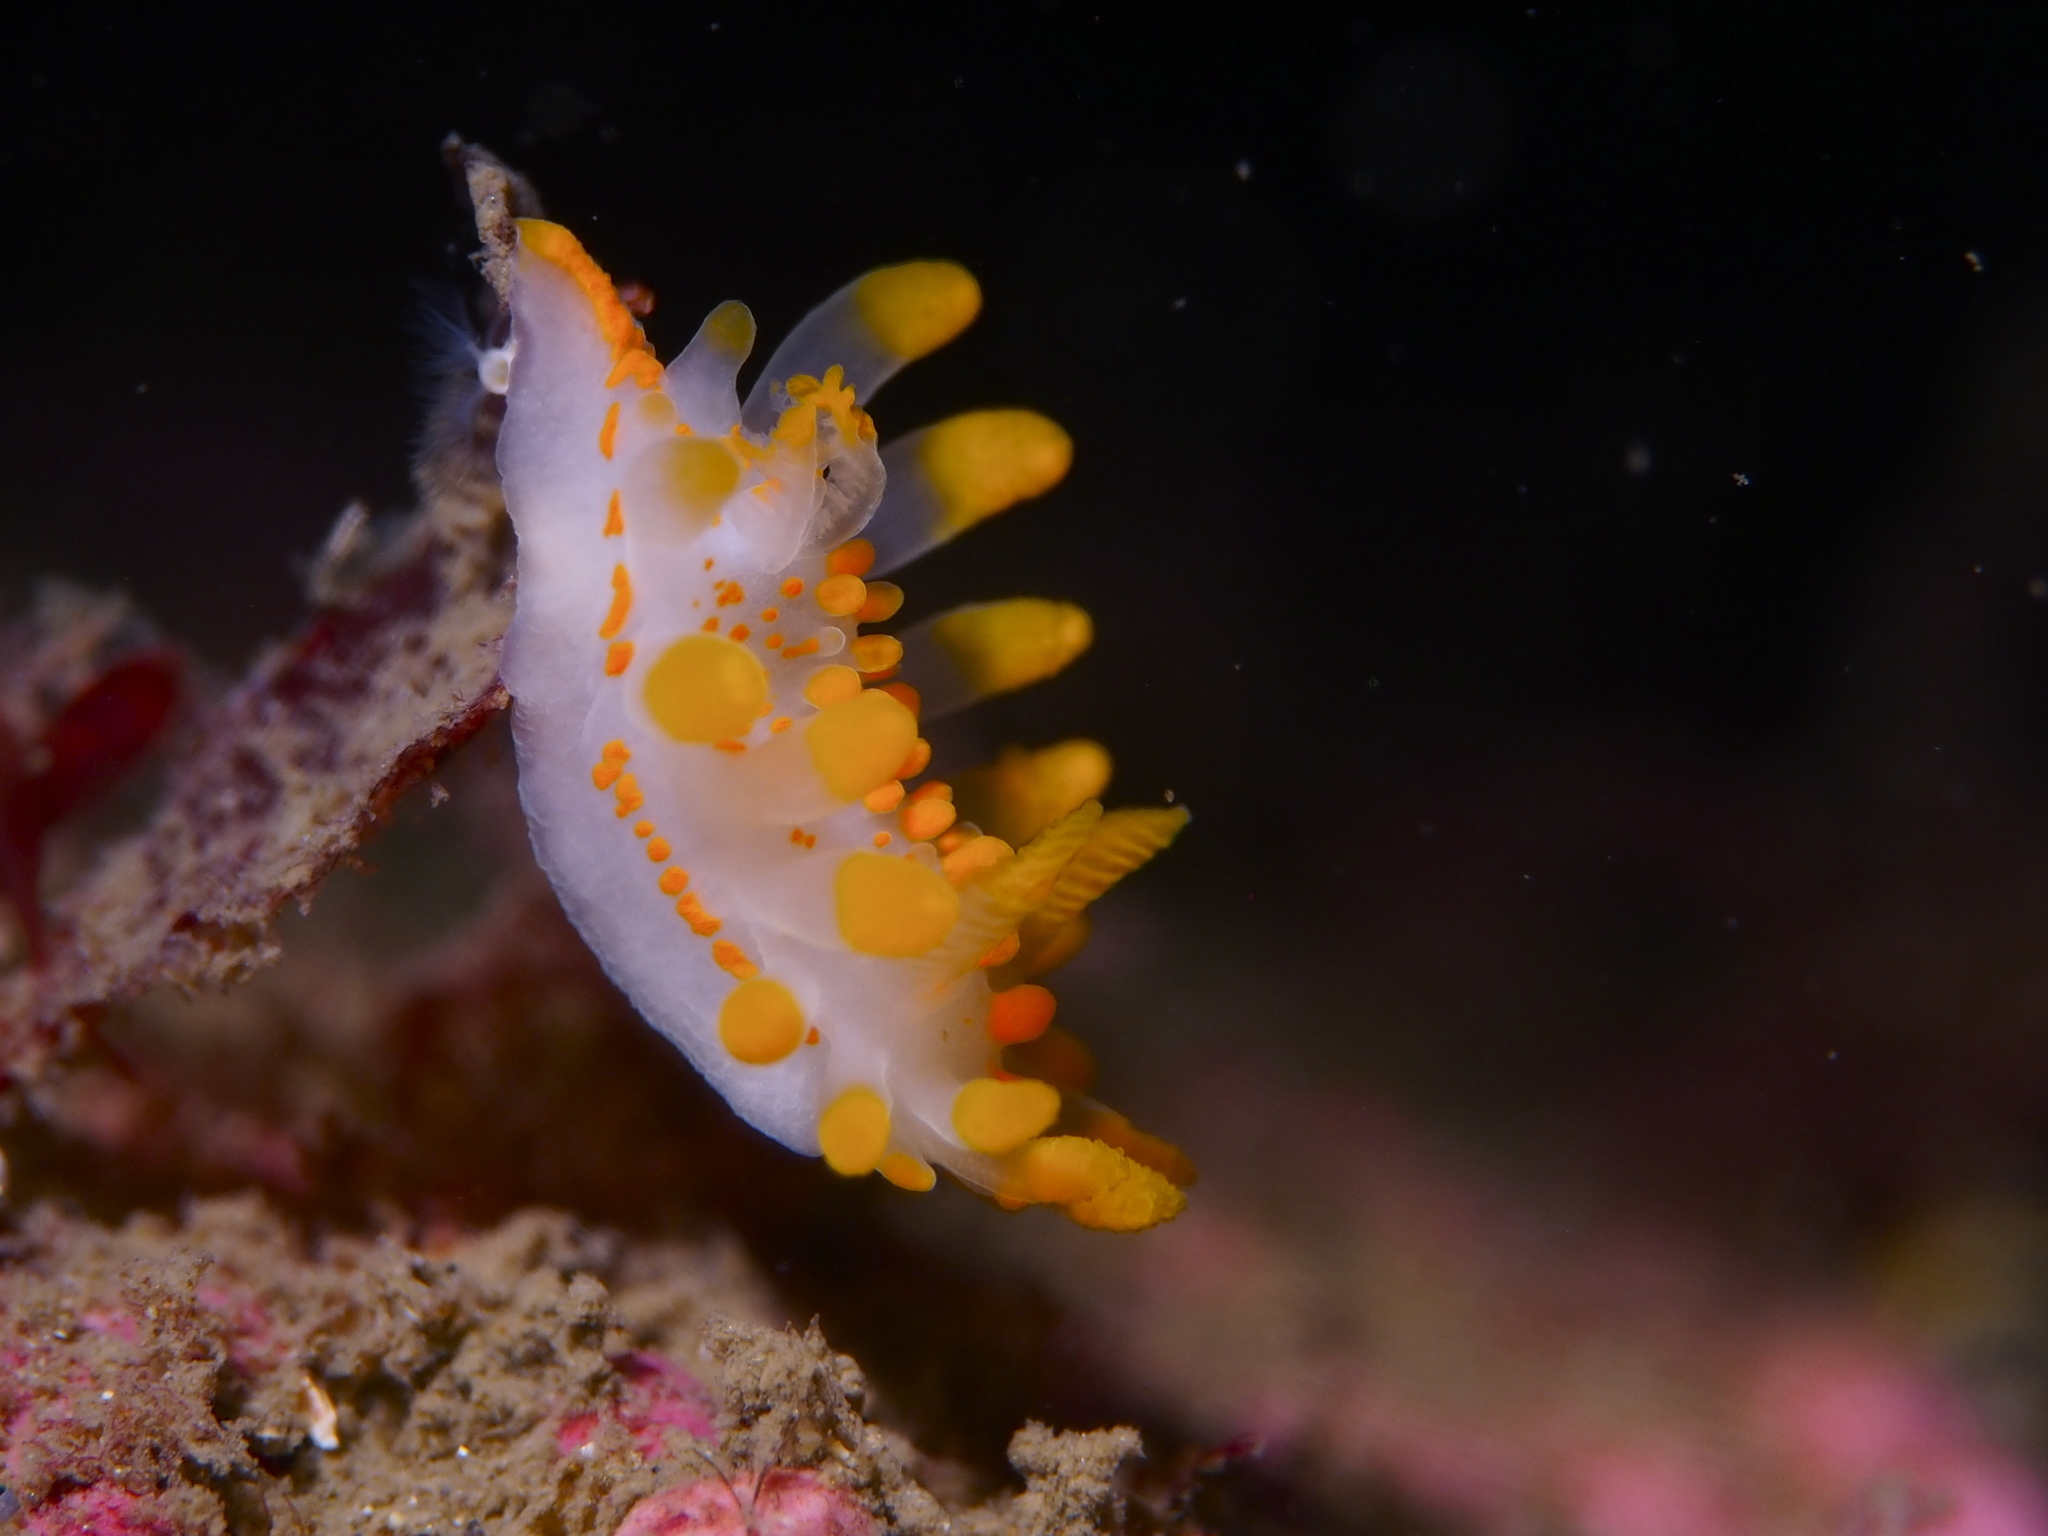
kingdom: Animalia
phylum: Mollusca
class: Gastropoda
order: Nudibranchia
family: Polyceridae
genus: Limacia
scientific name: Limacia clavigera
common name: Orange-clubbed sea slug
